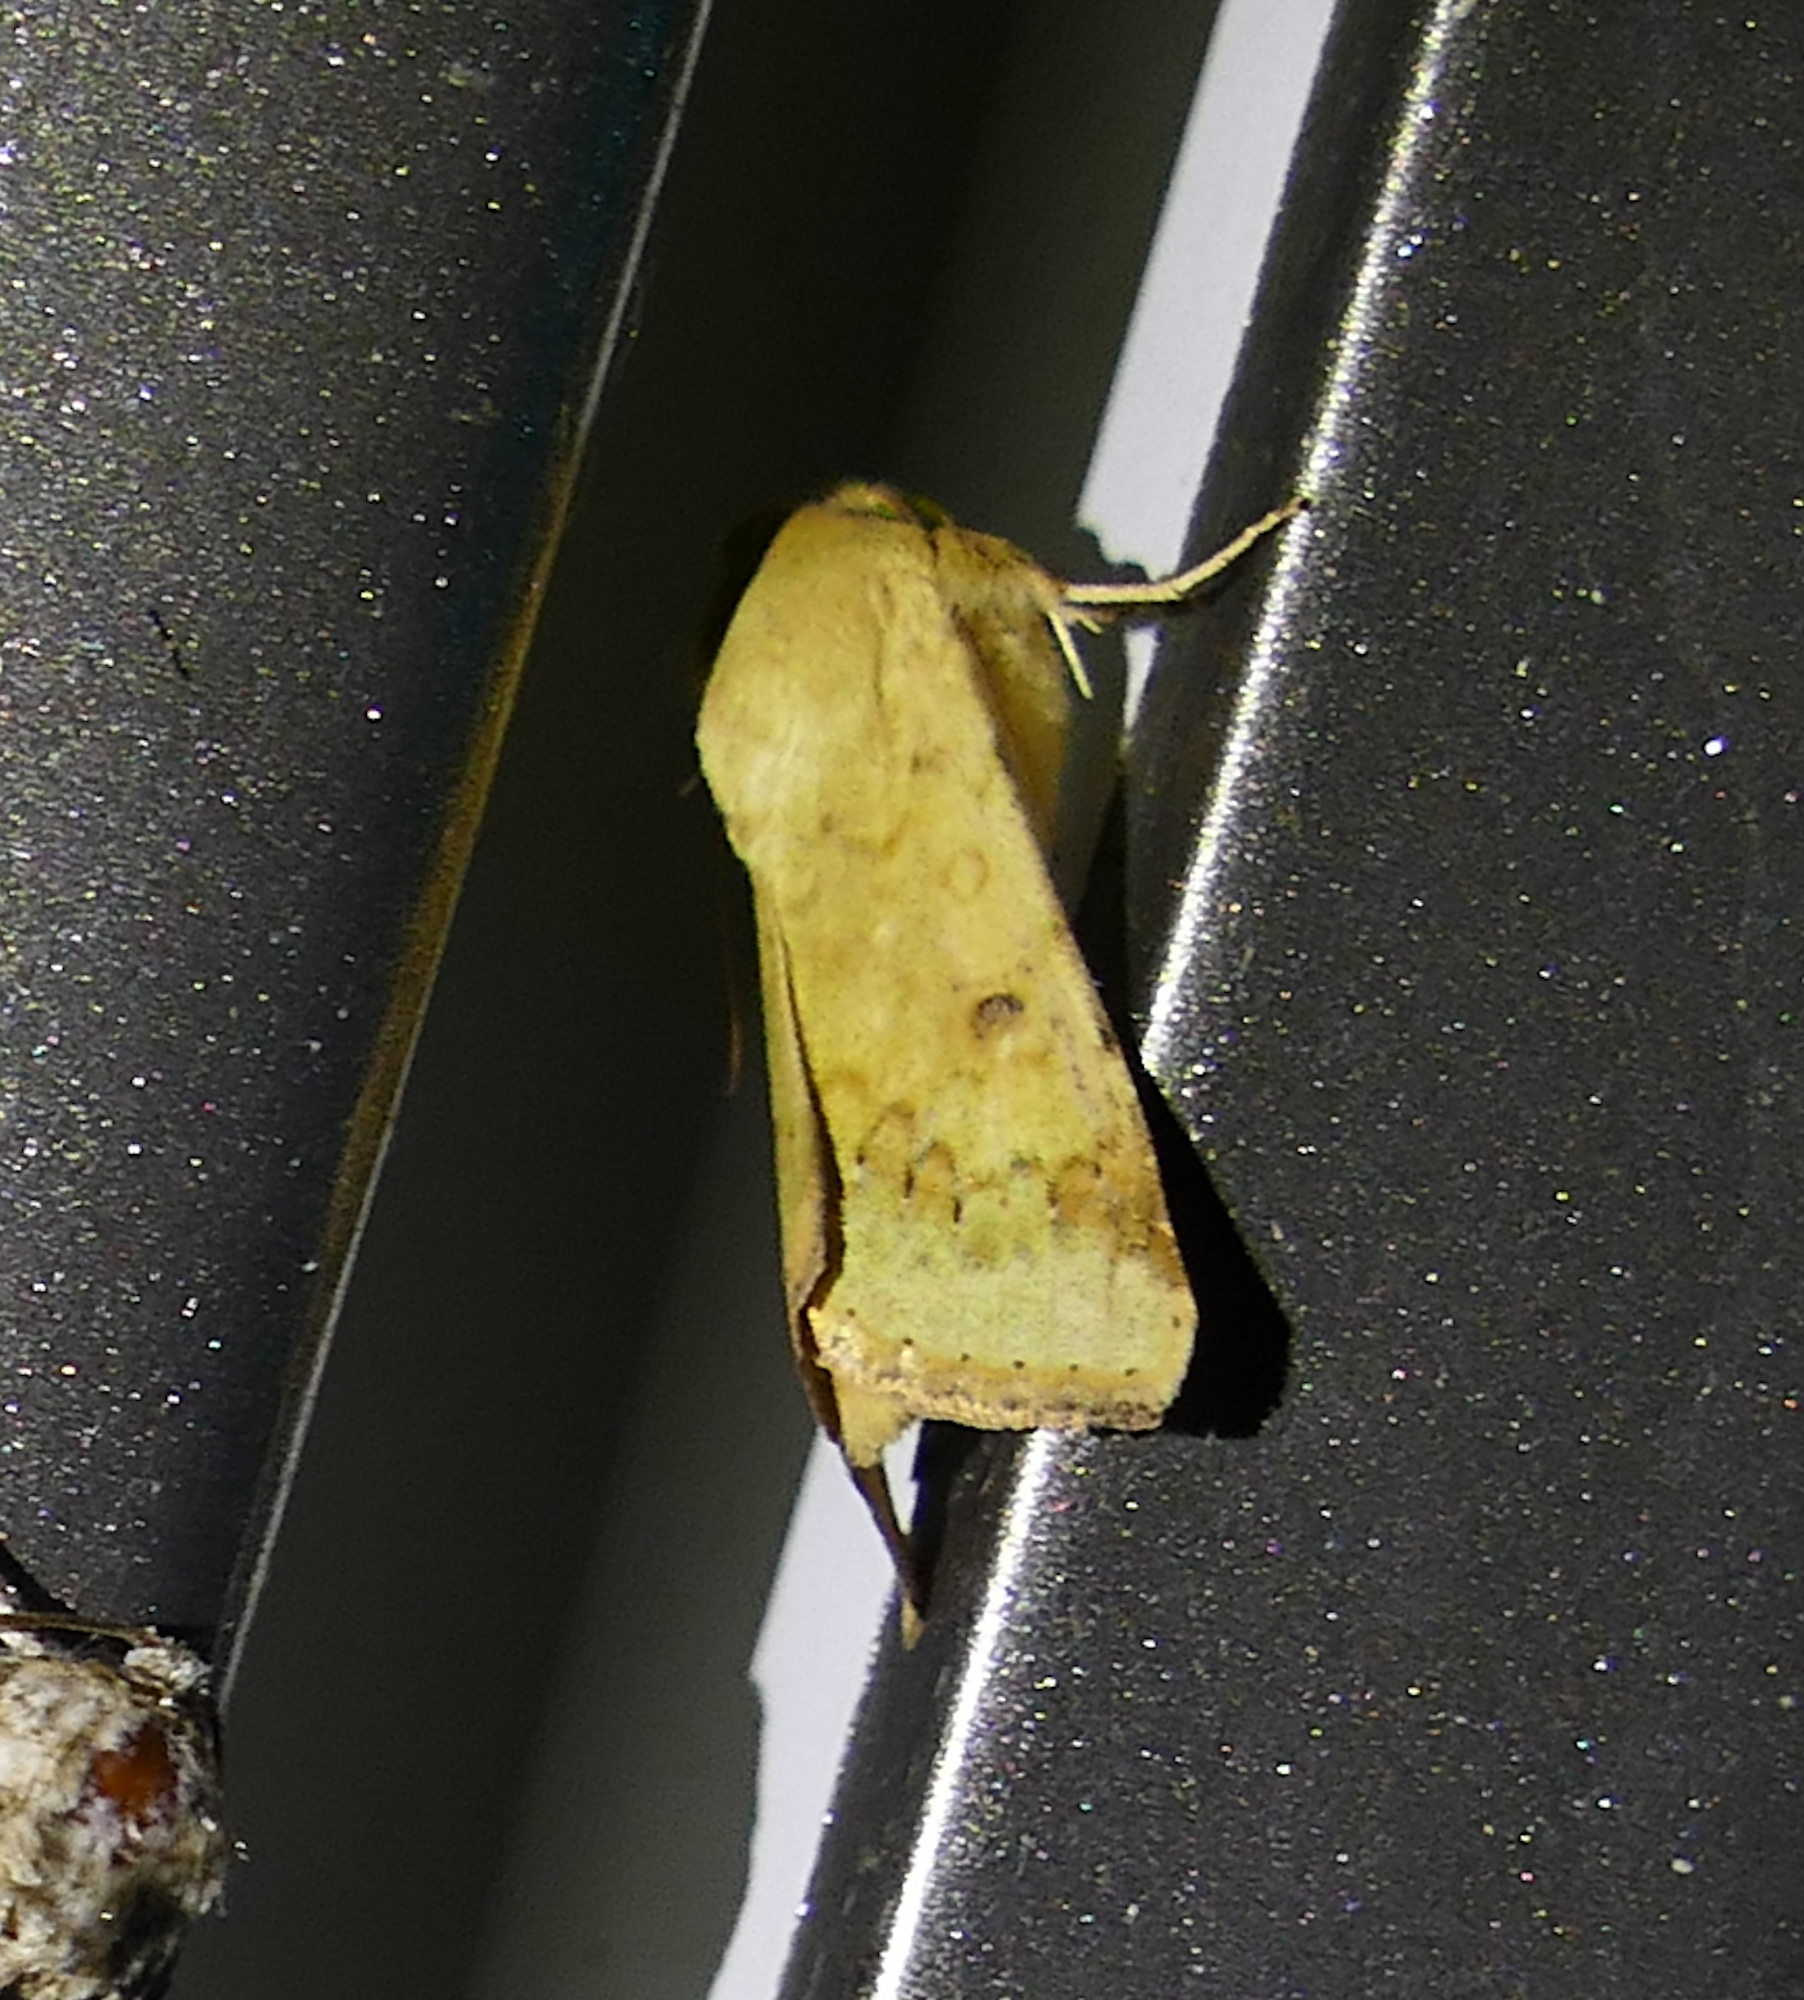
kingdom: Animalia
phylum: Arthropoda
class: Insecta
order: Lepidoptera
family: Noctuidae
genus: Helicoverpa
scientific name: Helicoverpa zea
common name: Bollworm
